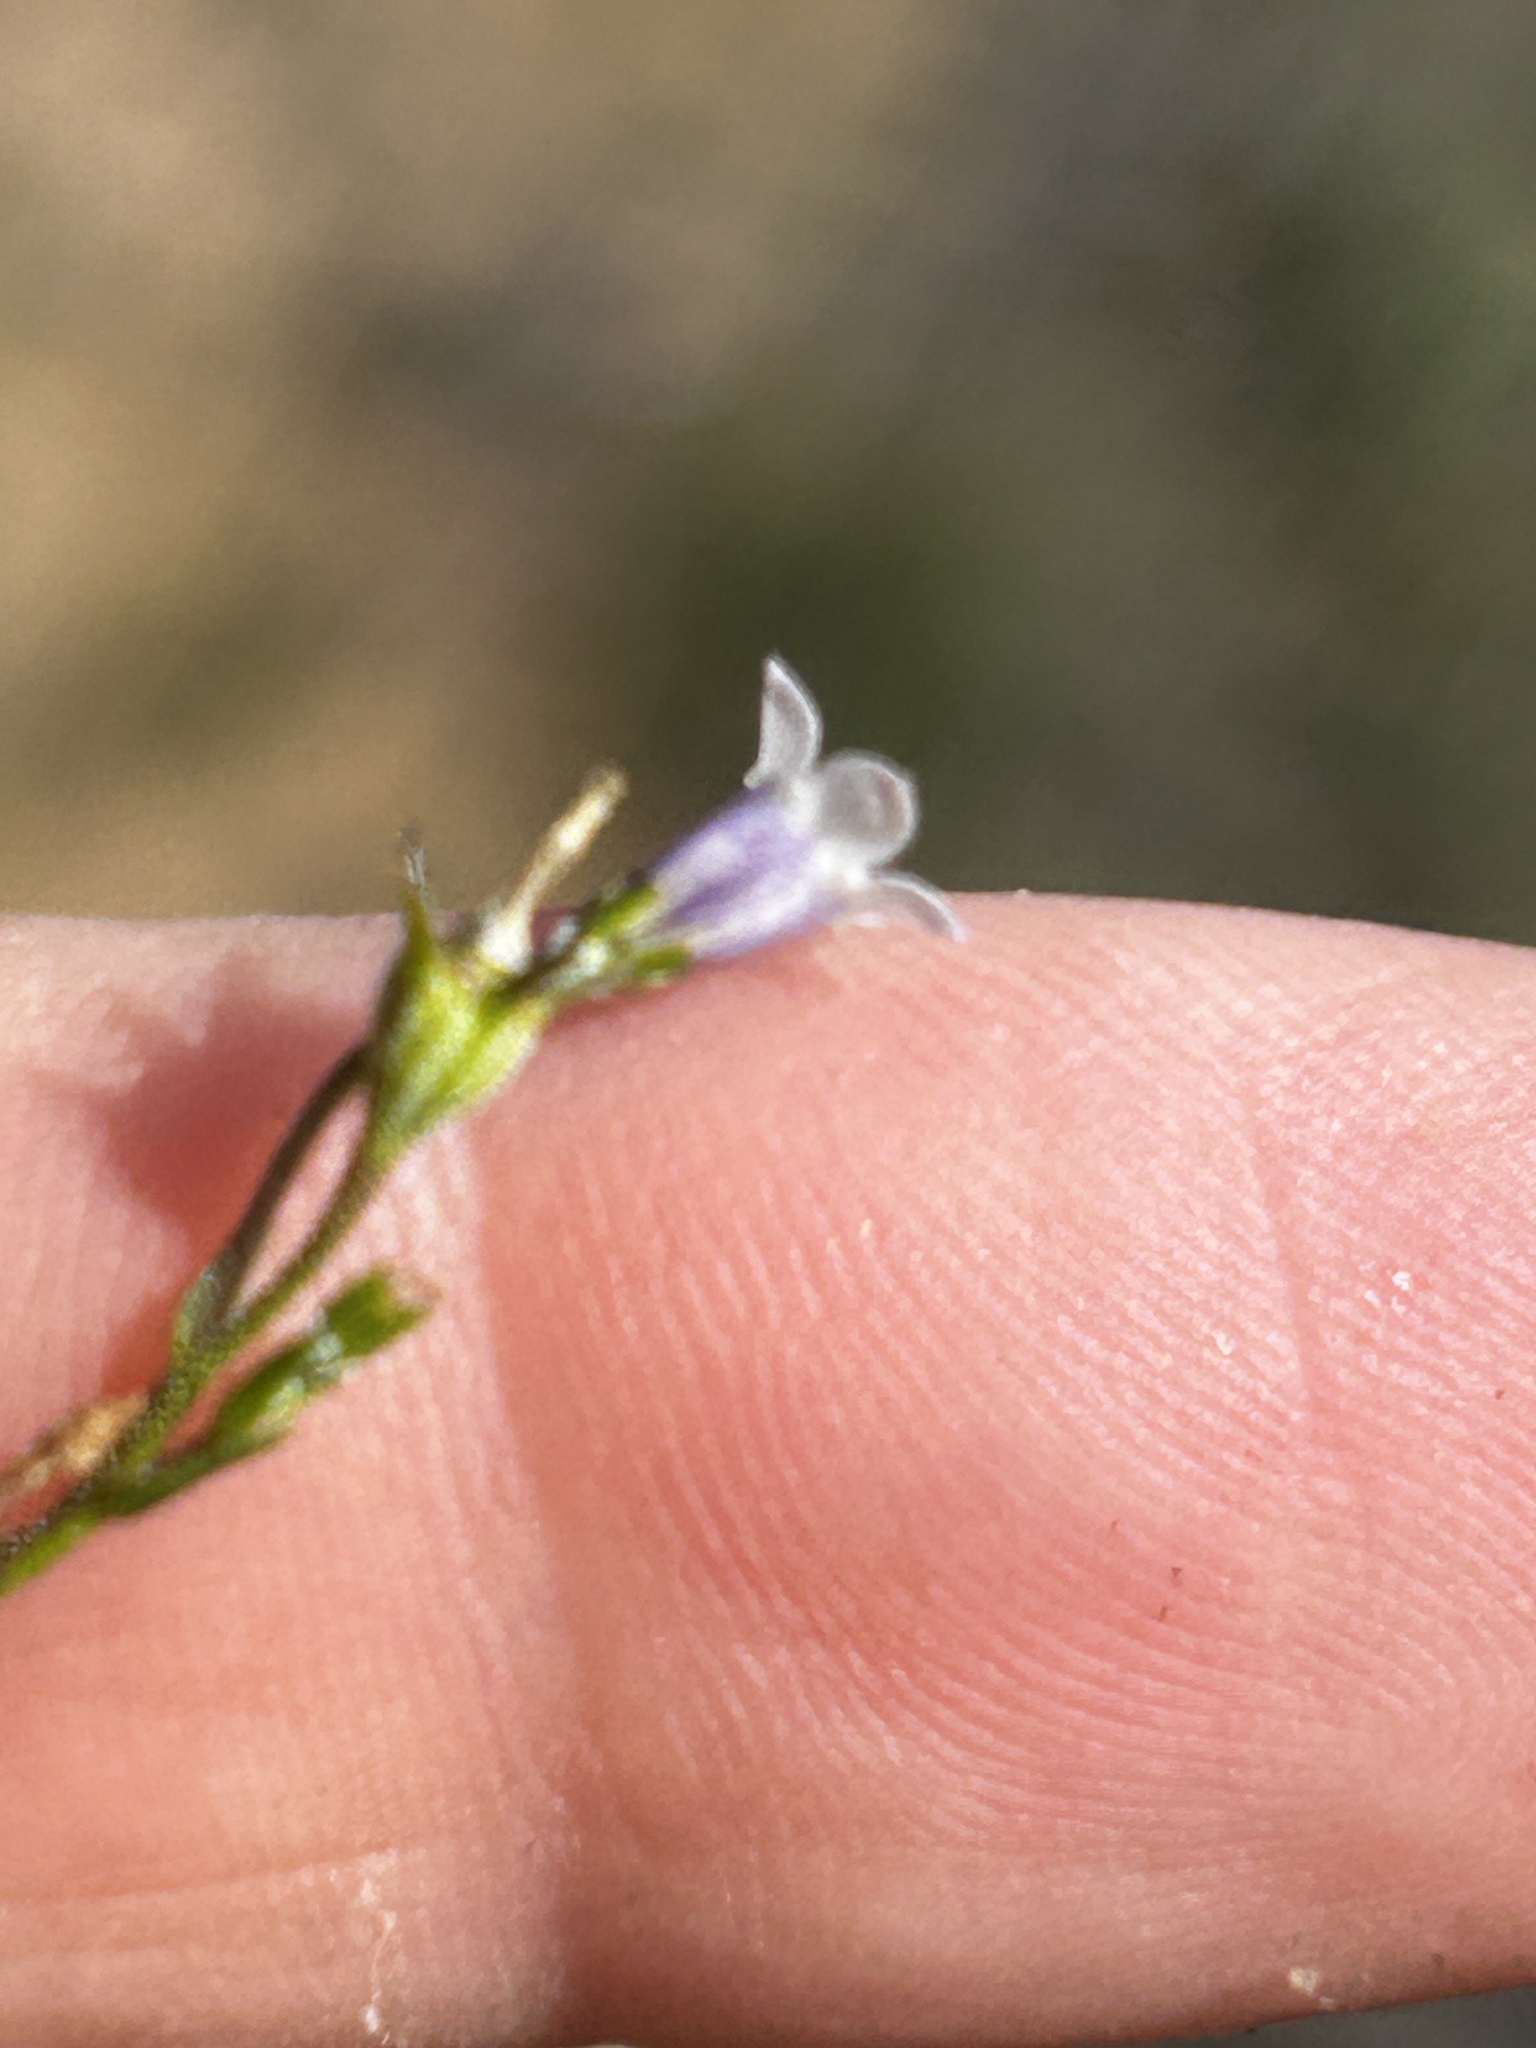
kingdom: Plantae
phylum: Tracheophyta
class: Magnoliopsida
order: Asterales
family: Campanulaceae
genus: Prismatocarpus
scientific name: Prismatocarpus candolleanus
